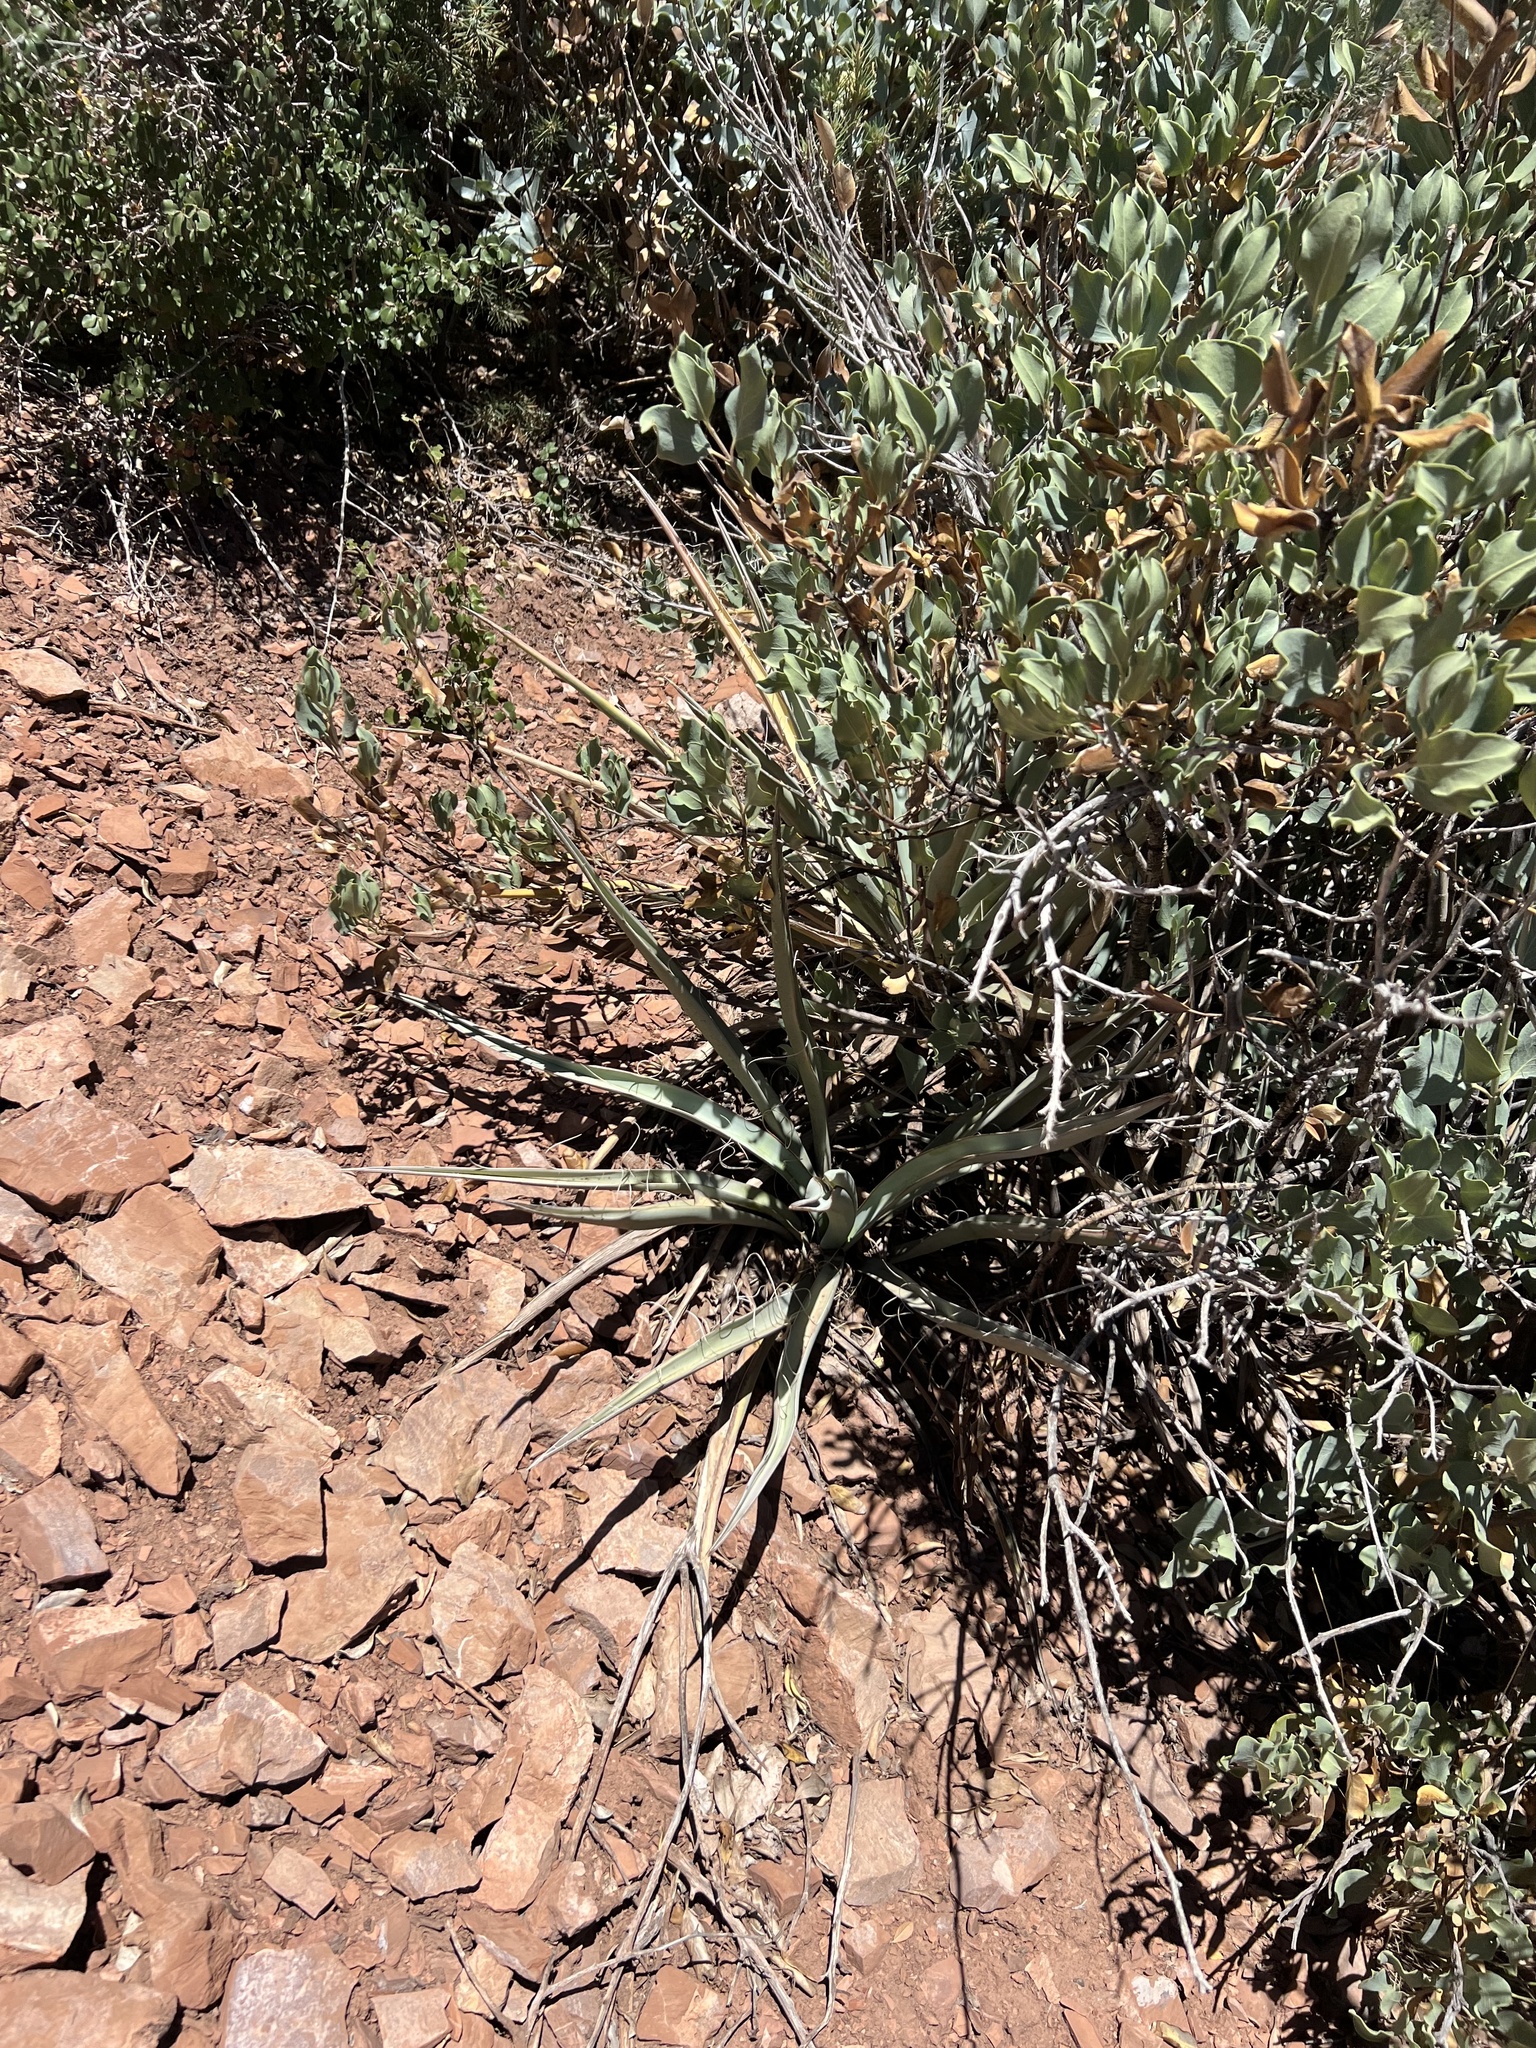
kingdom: Plantae
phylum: Tracheophyta
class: Liliopsida
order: Asparagales
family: Asparagaceae
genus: Yucca
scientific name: Yucca baccata
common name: Banana yucca
